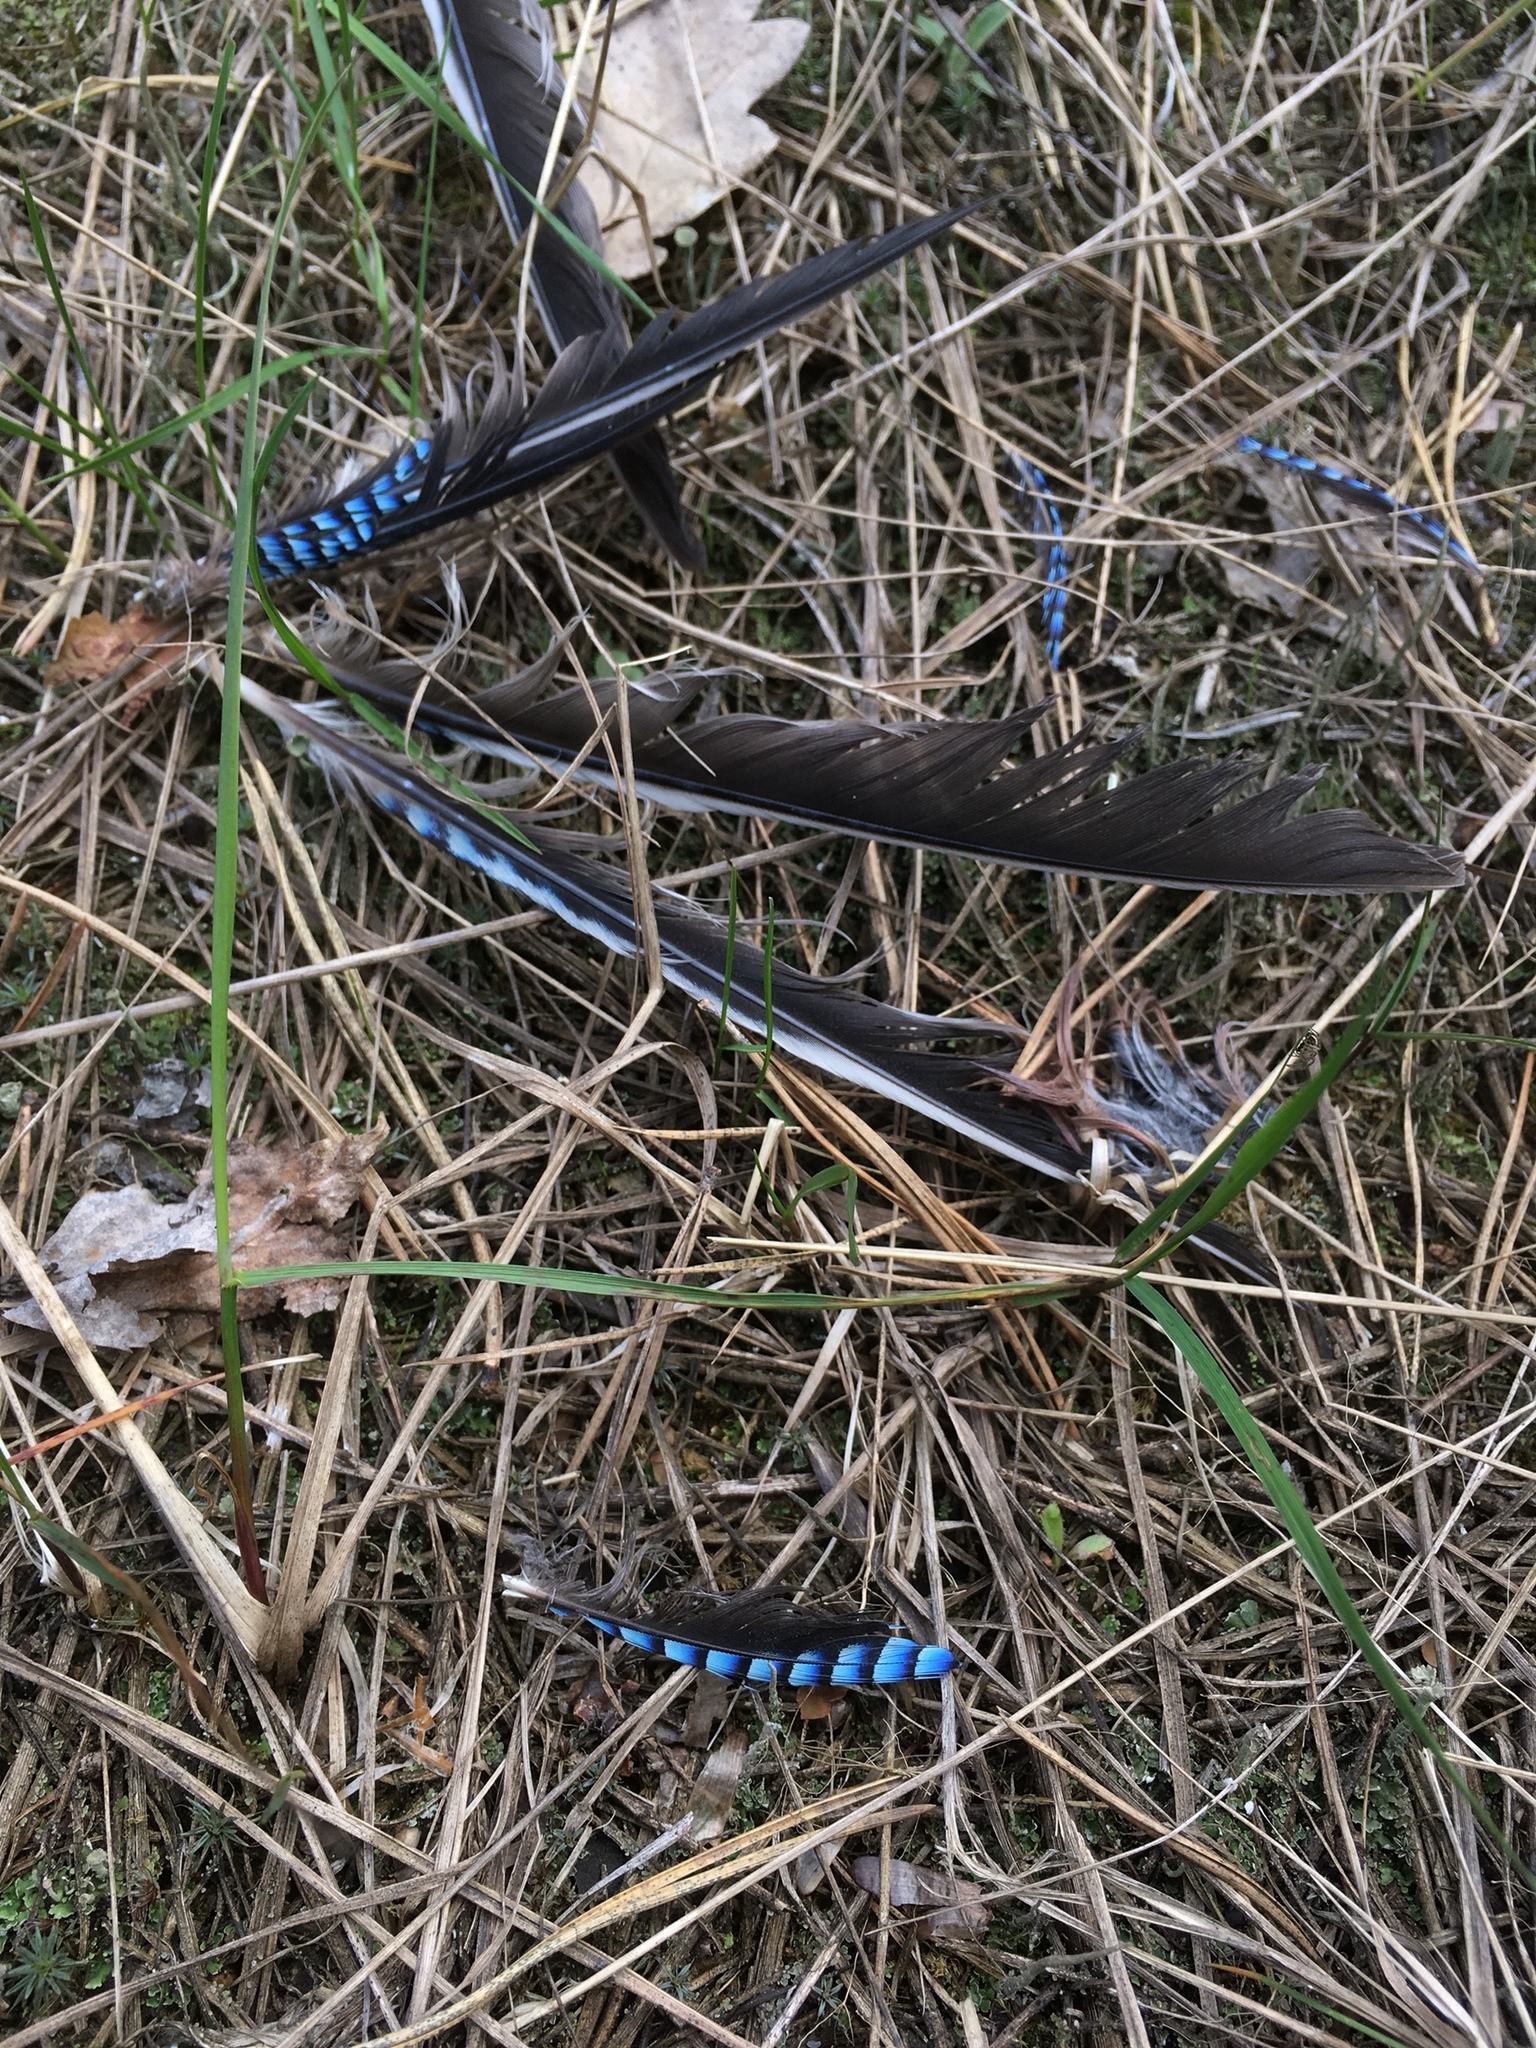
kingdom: Animalia
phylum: Chordata
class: Aves
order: Passeriformes
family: Corvidae
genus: Garrulus
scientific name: Garrulus glandarius
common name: Eurasian jay
